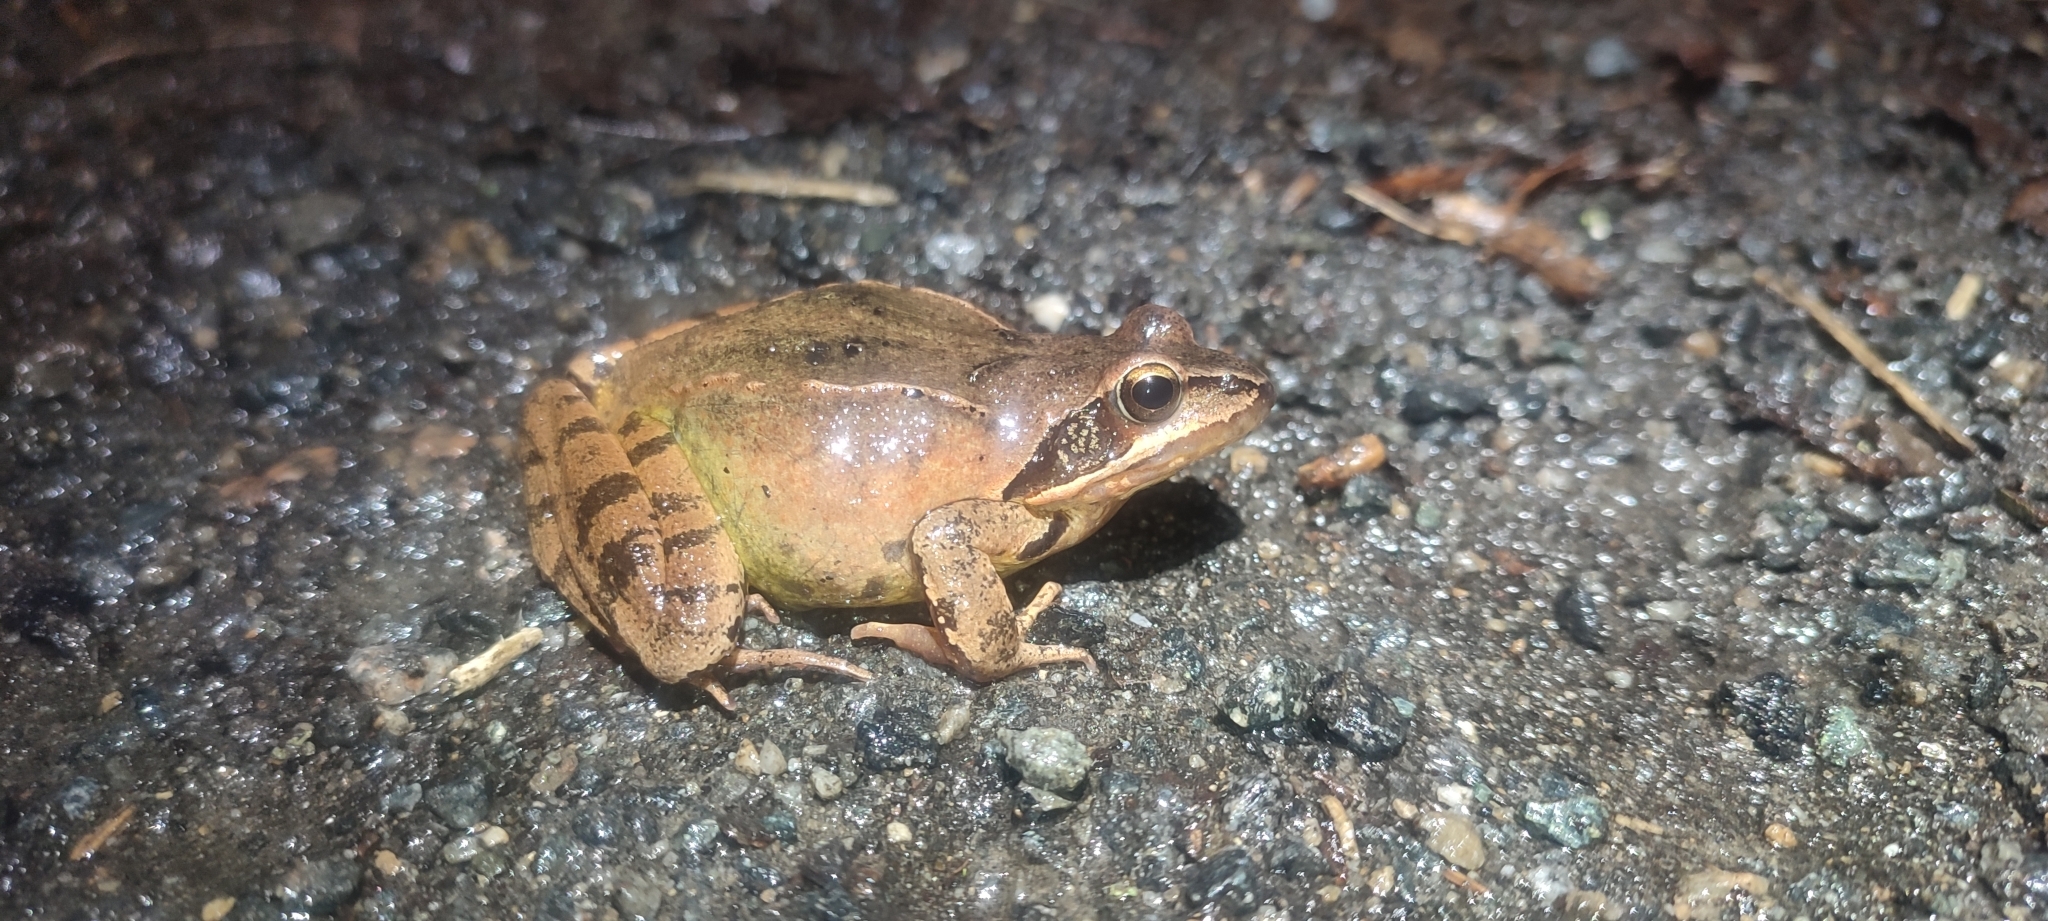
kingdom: Animalia
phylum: Chordata
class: Amphibia
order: Anura
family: Ranidae
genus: Rana
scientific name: Rana dalmatina
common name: Agile frog
